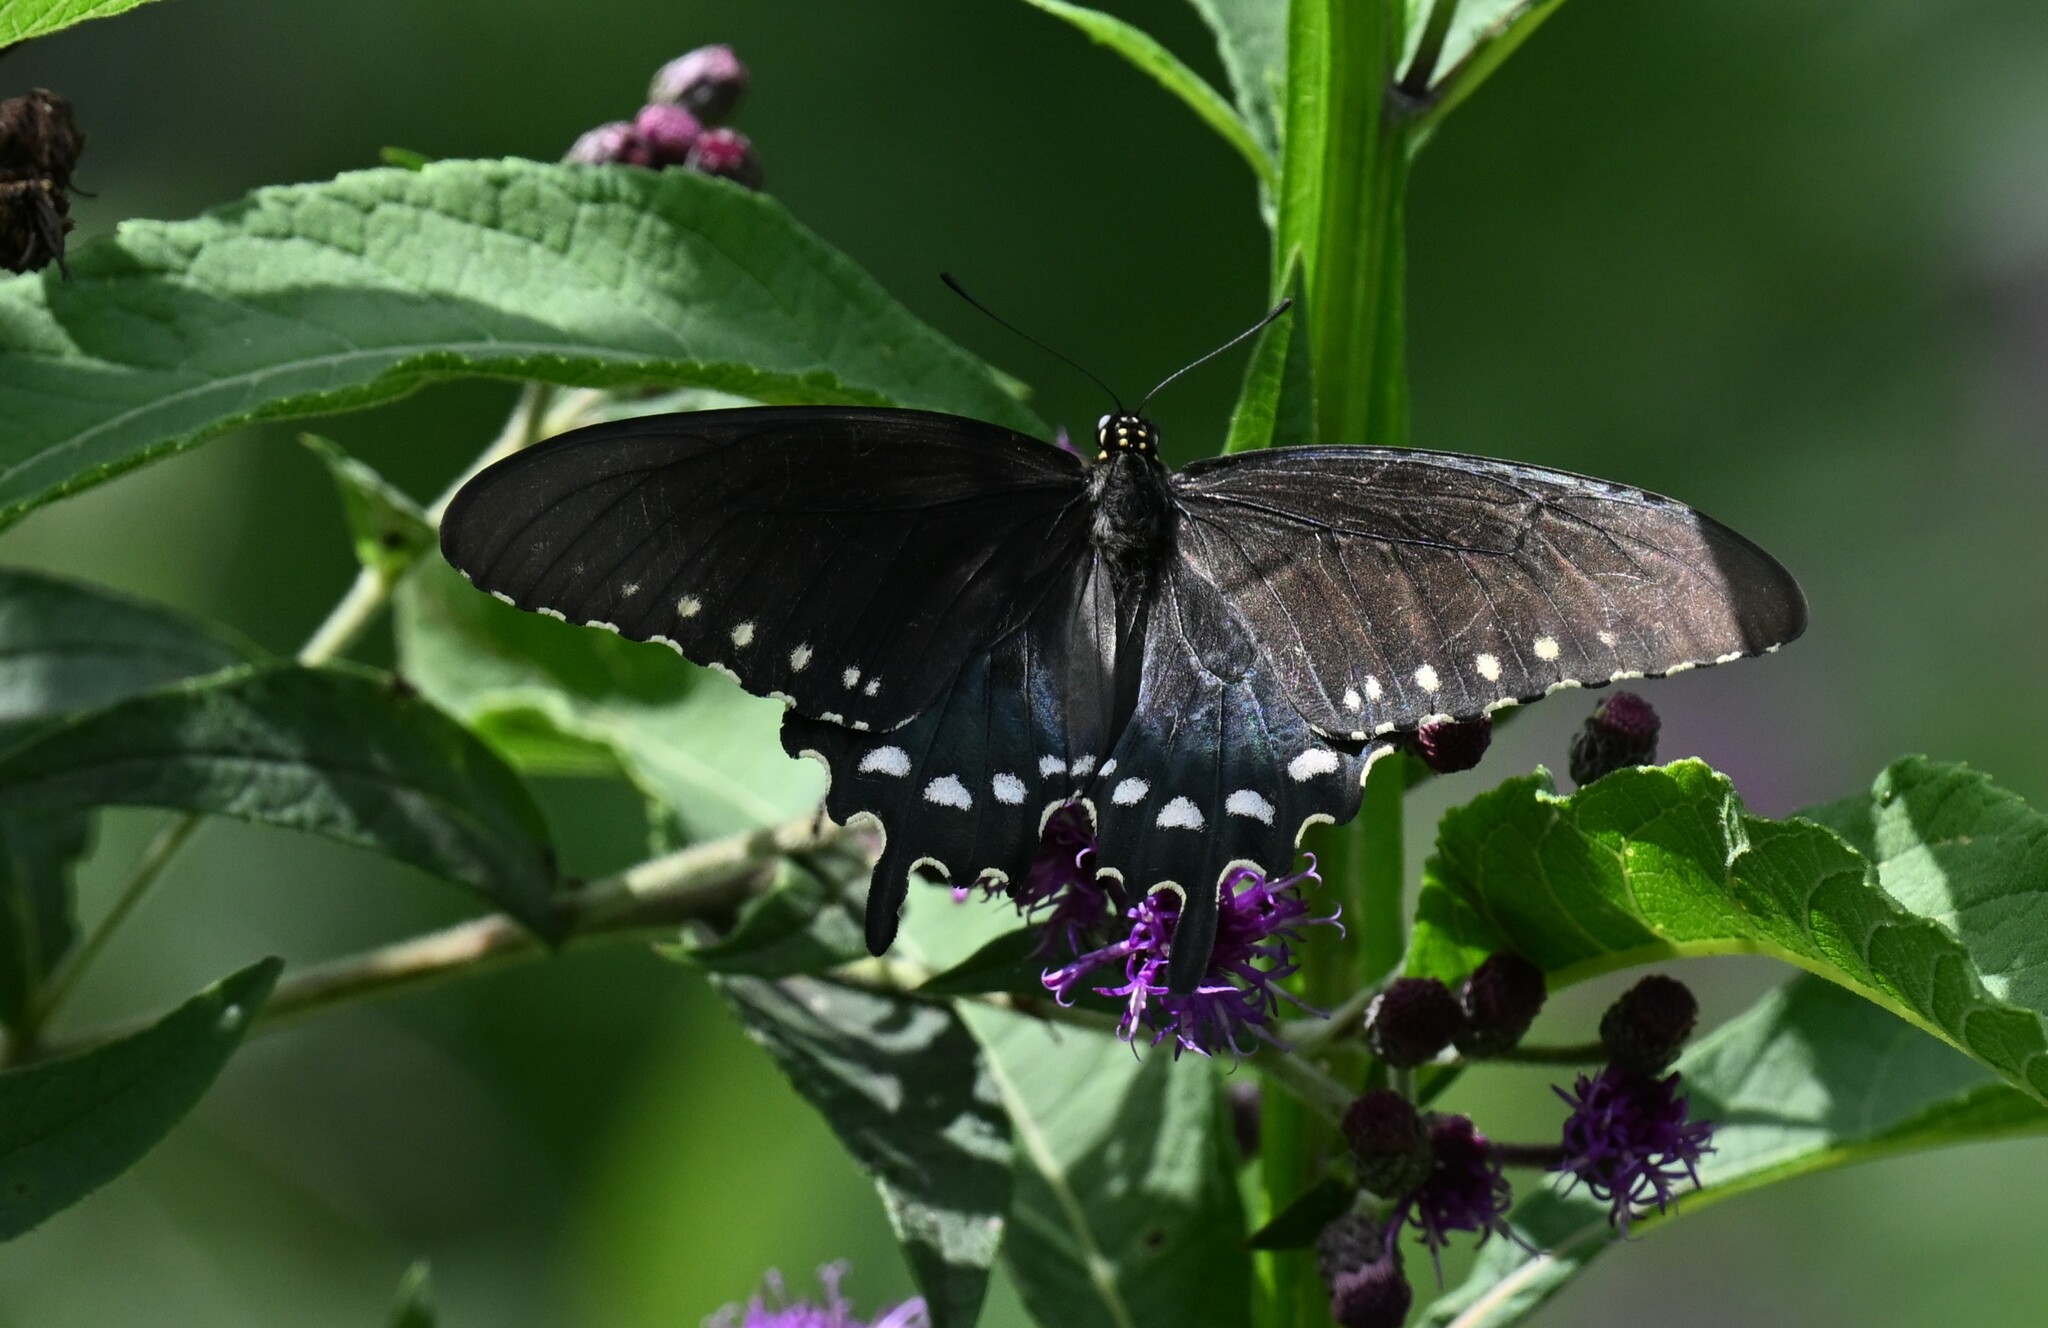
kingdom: Animalia
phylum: Arthropoda
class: Insecta
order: Lepidoptera
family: Papilionidae
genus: Battus
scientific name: Battus philenor
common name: Pipevine swallowtail
